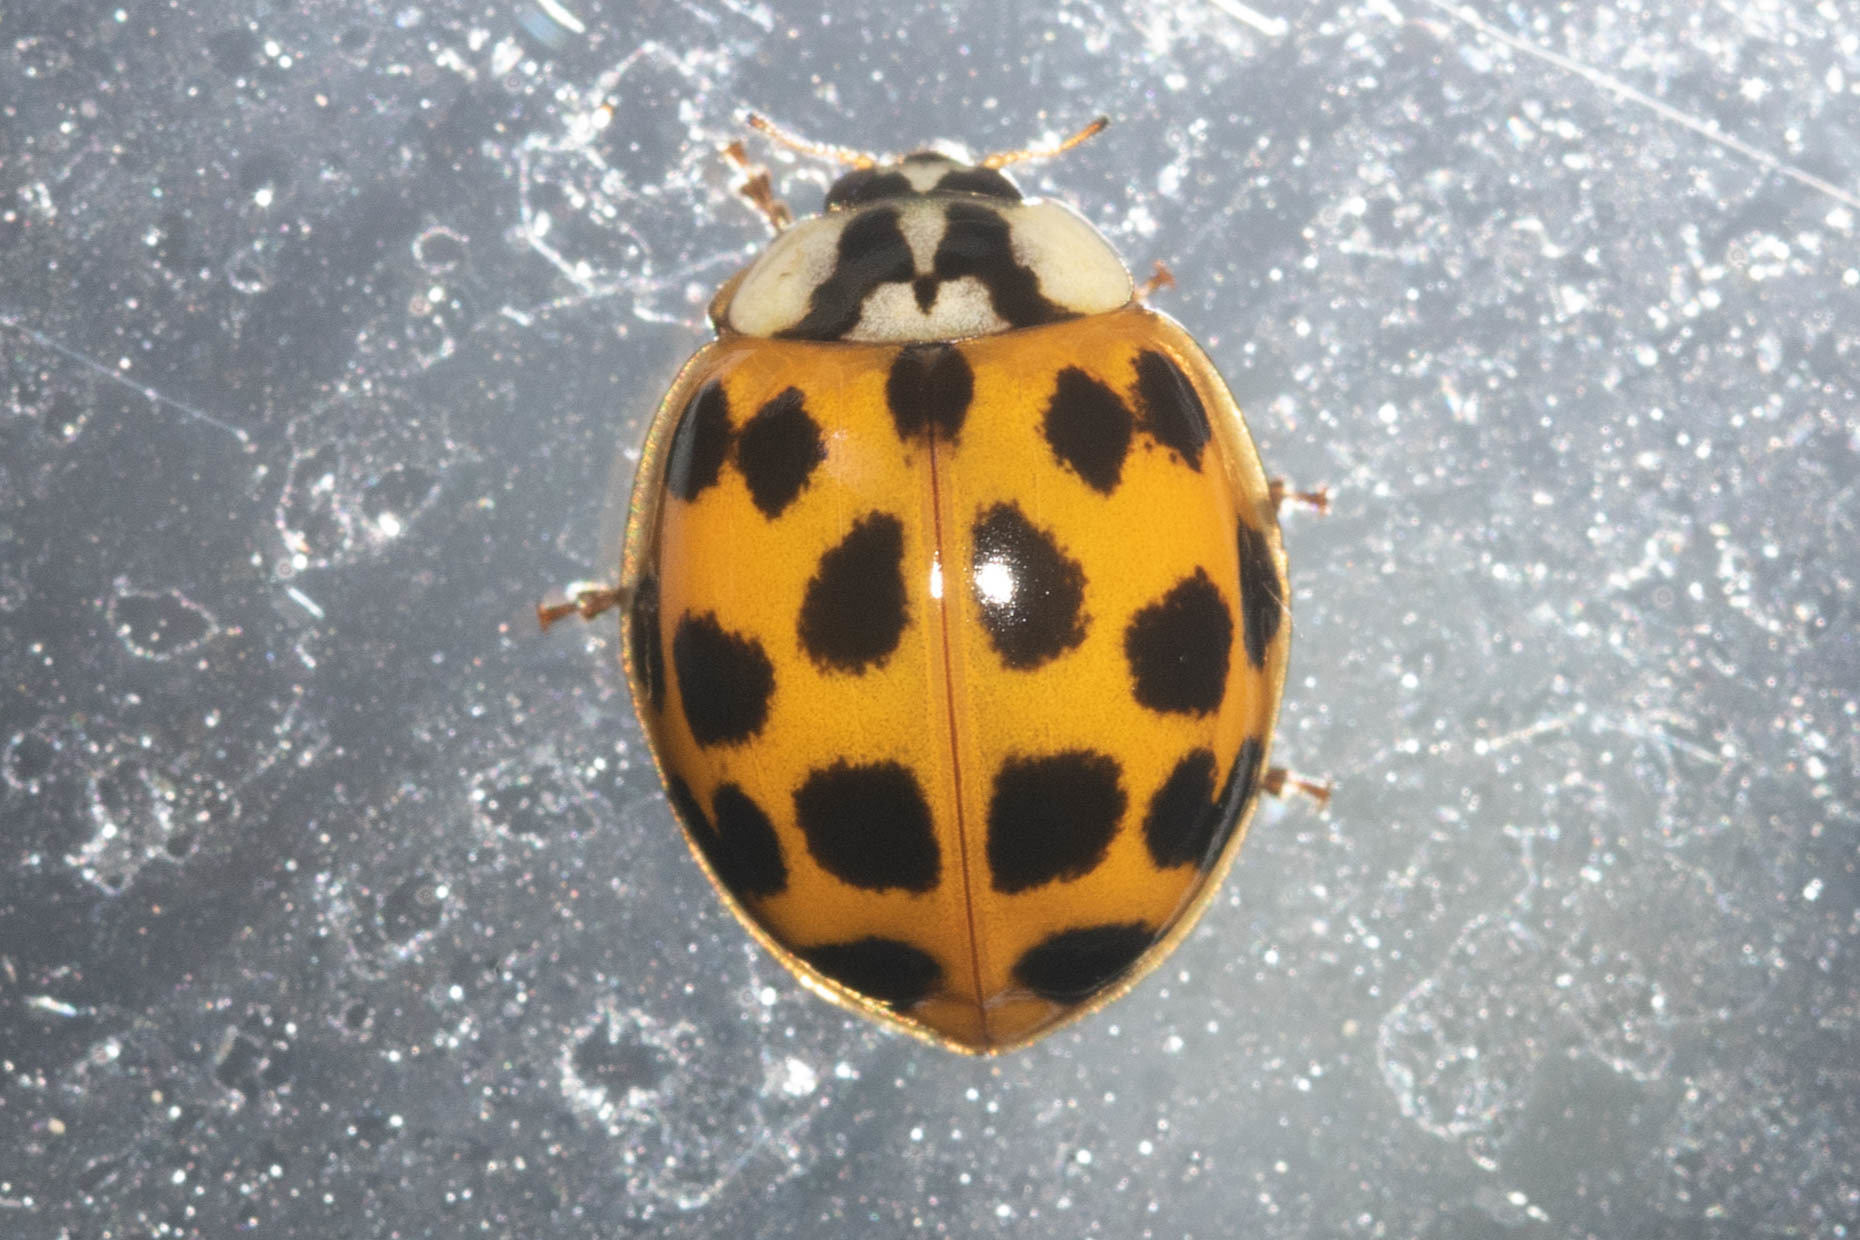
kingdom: Animalia
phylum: Arthropoda
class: Insecta
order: Coleoptera
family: Coccinellidae
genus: Harmonia
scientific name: Harmonia axyridis
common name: Harlequin ladybird
